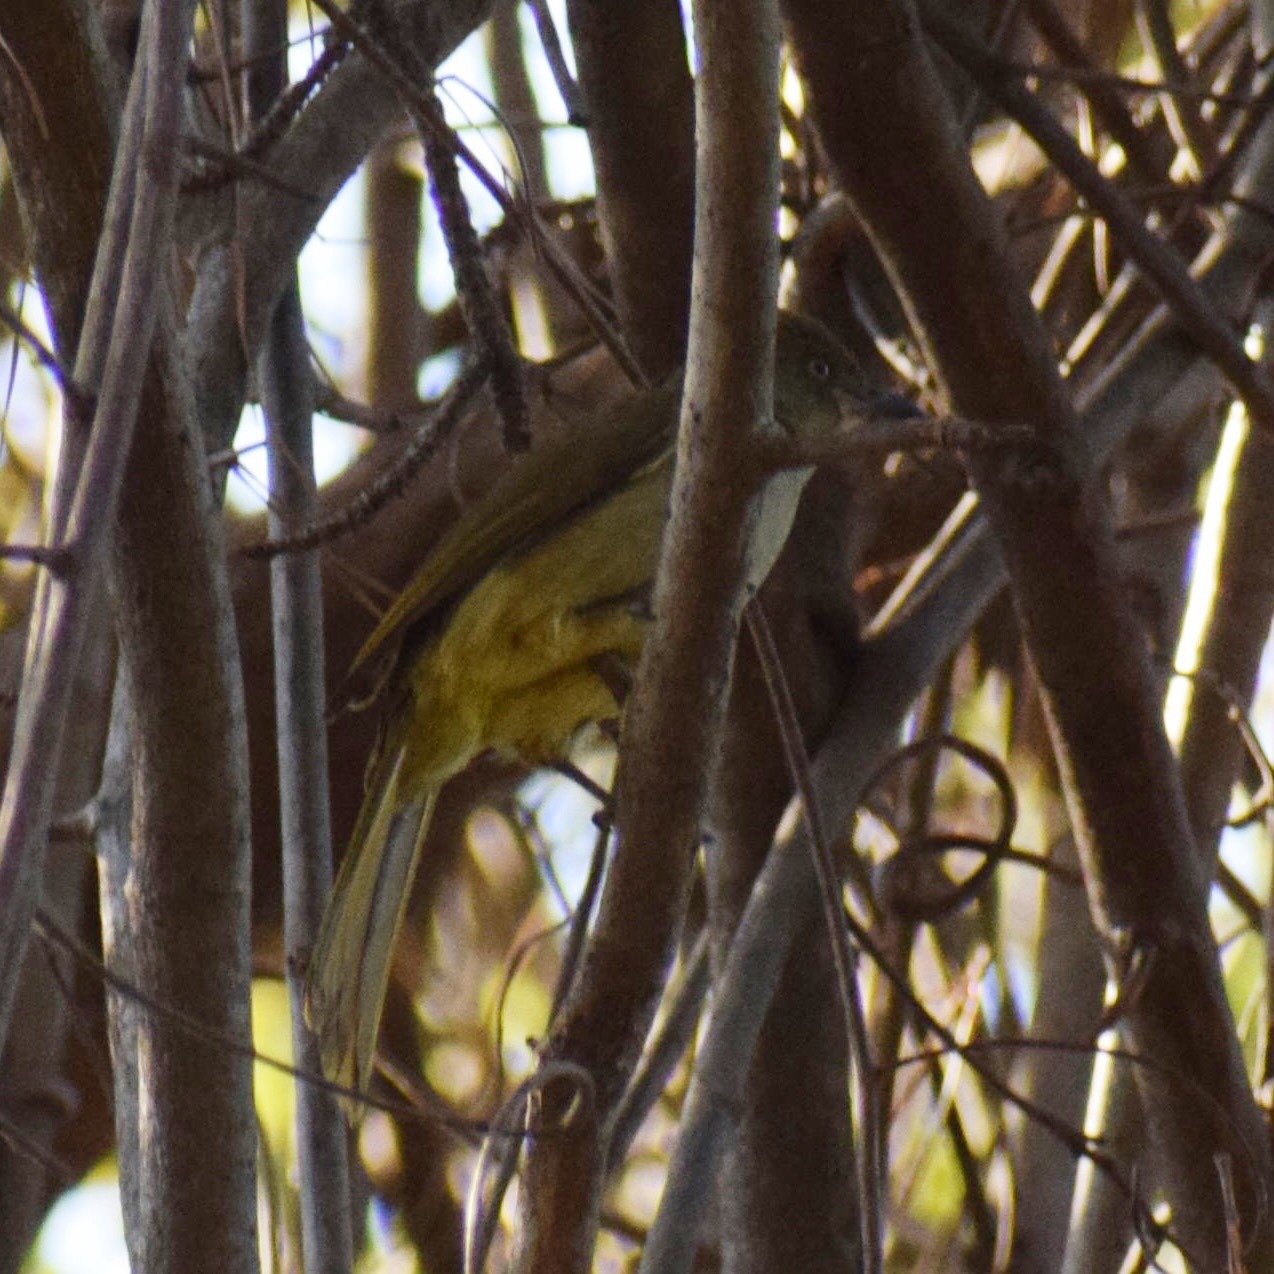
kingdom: Animalia
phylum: Chordata
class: Aves
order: Passeriformes
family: Pycnonotidae
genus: Andropadus
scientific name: Andropadus importunus
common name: Sombre greenbul
